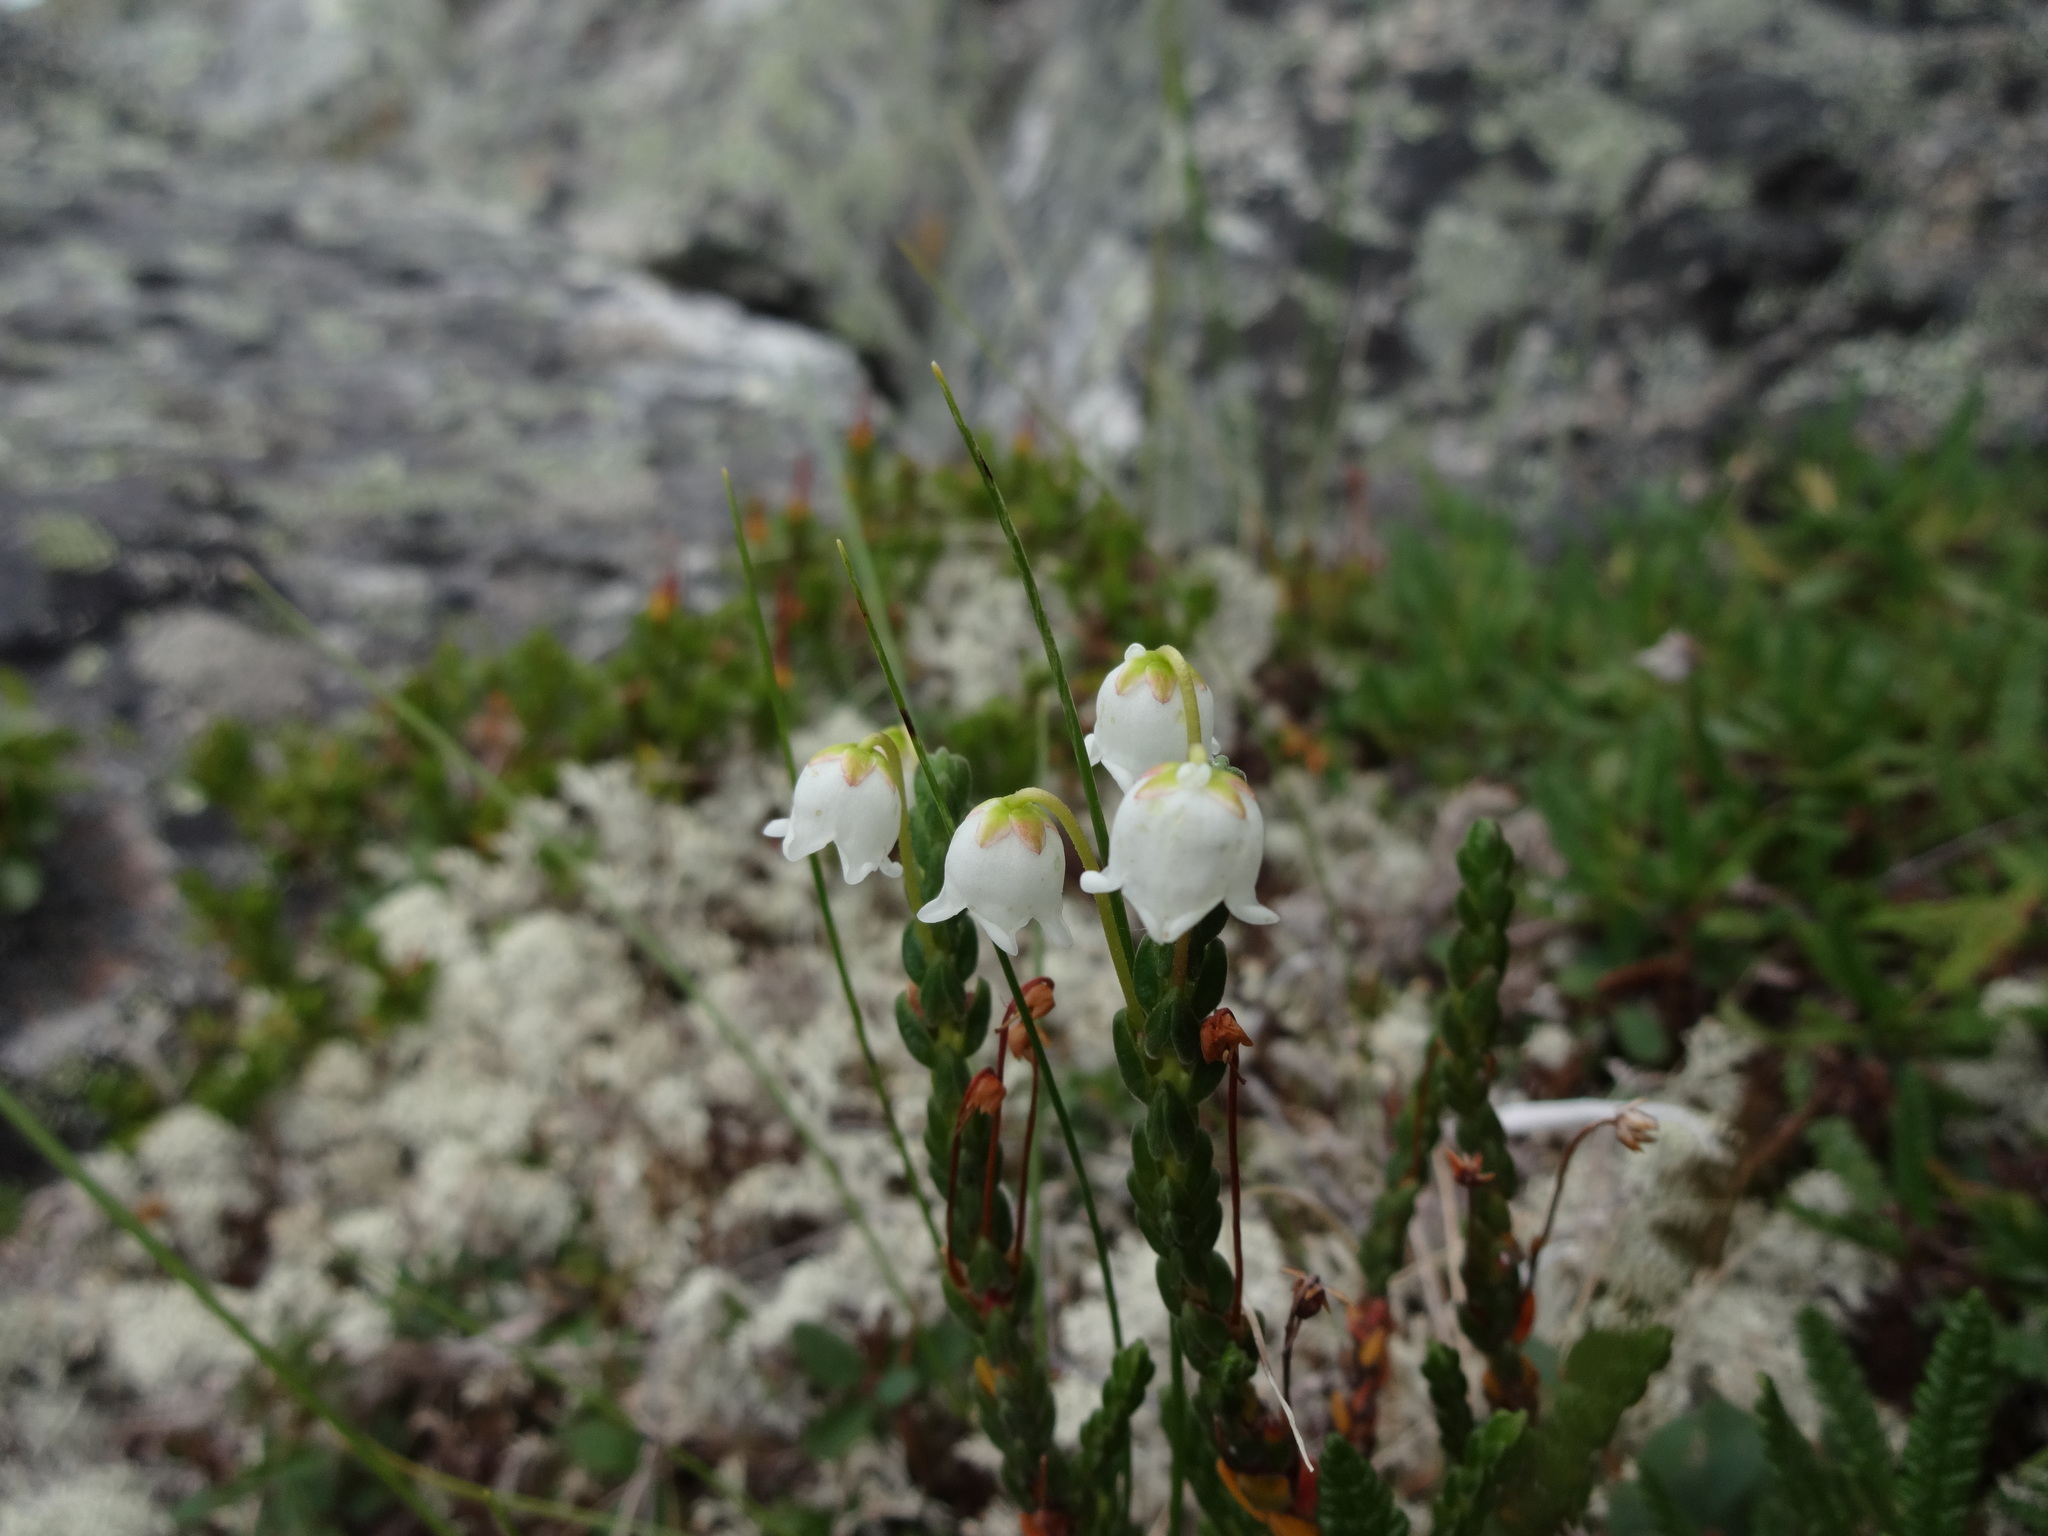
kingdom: Plantae
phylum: Tracheophyta
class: Magnoliopsida
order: Ericales
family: Ericaceae
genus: Cassiope
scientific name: Cassiope tetragona
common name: Arctic bell heather
